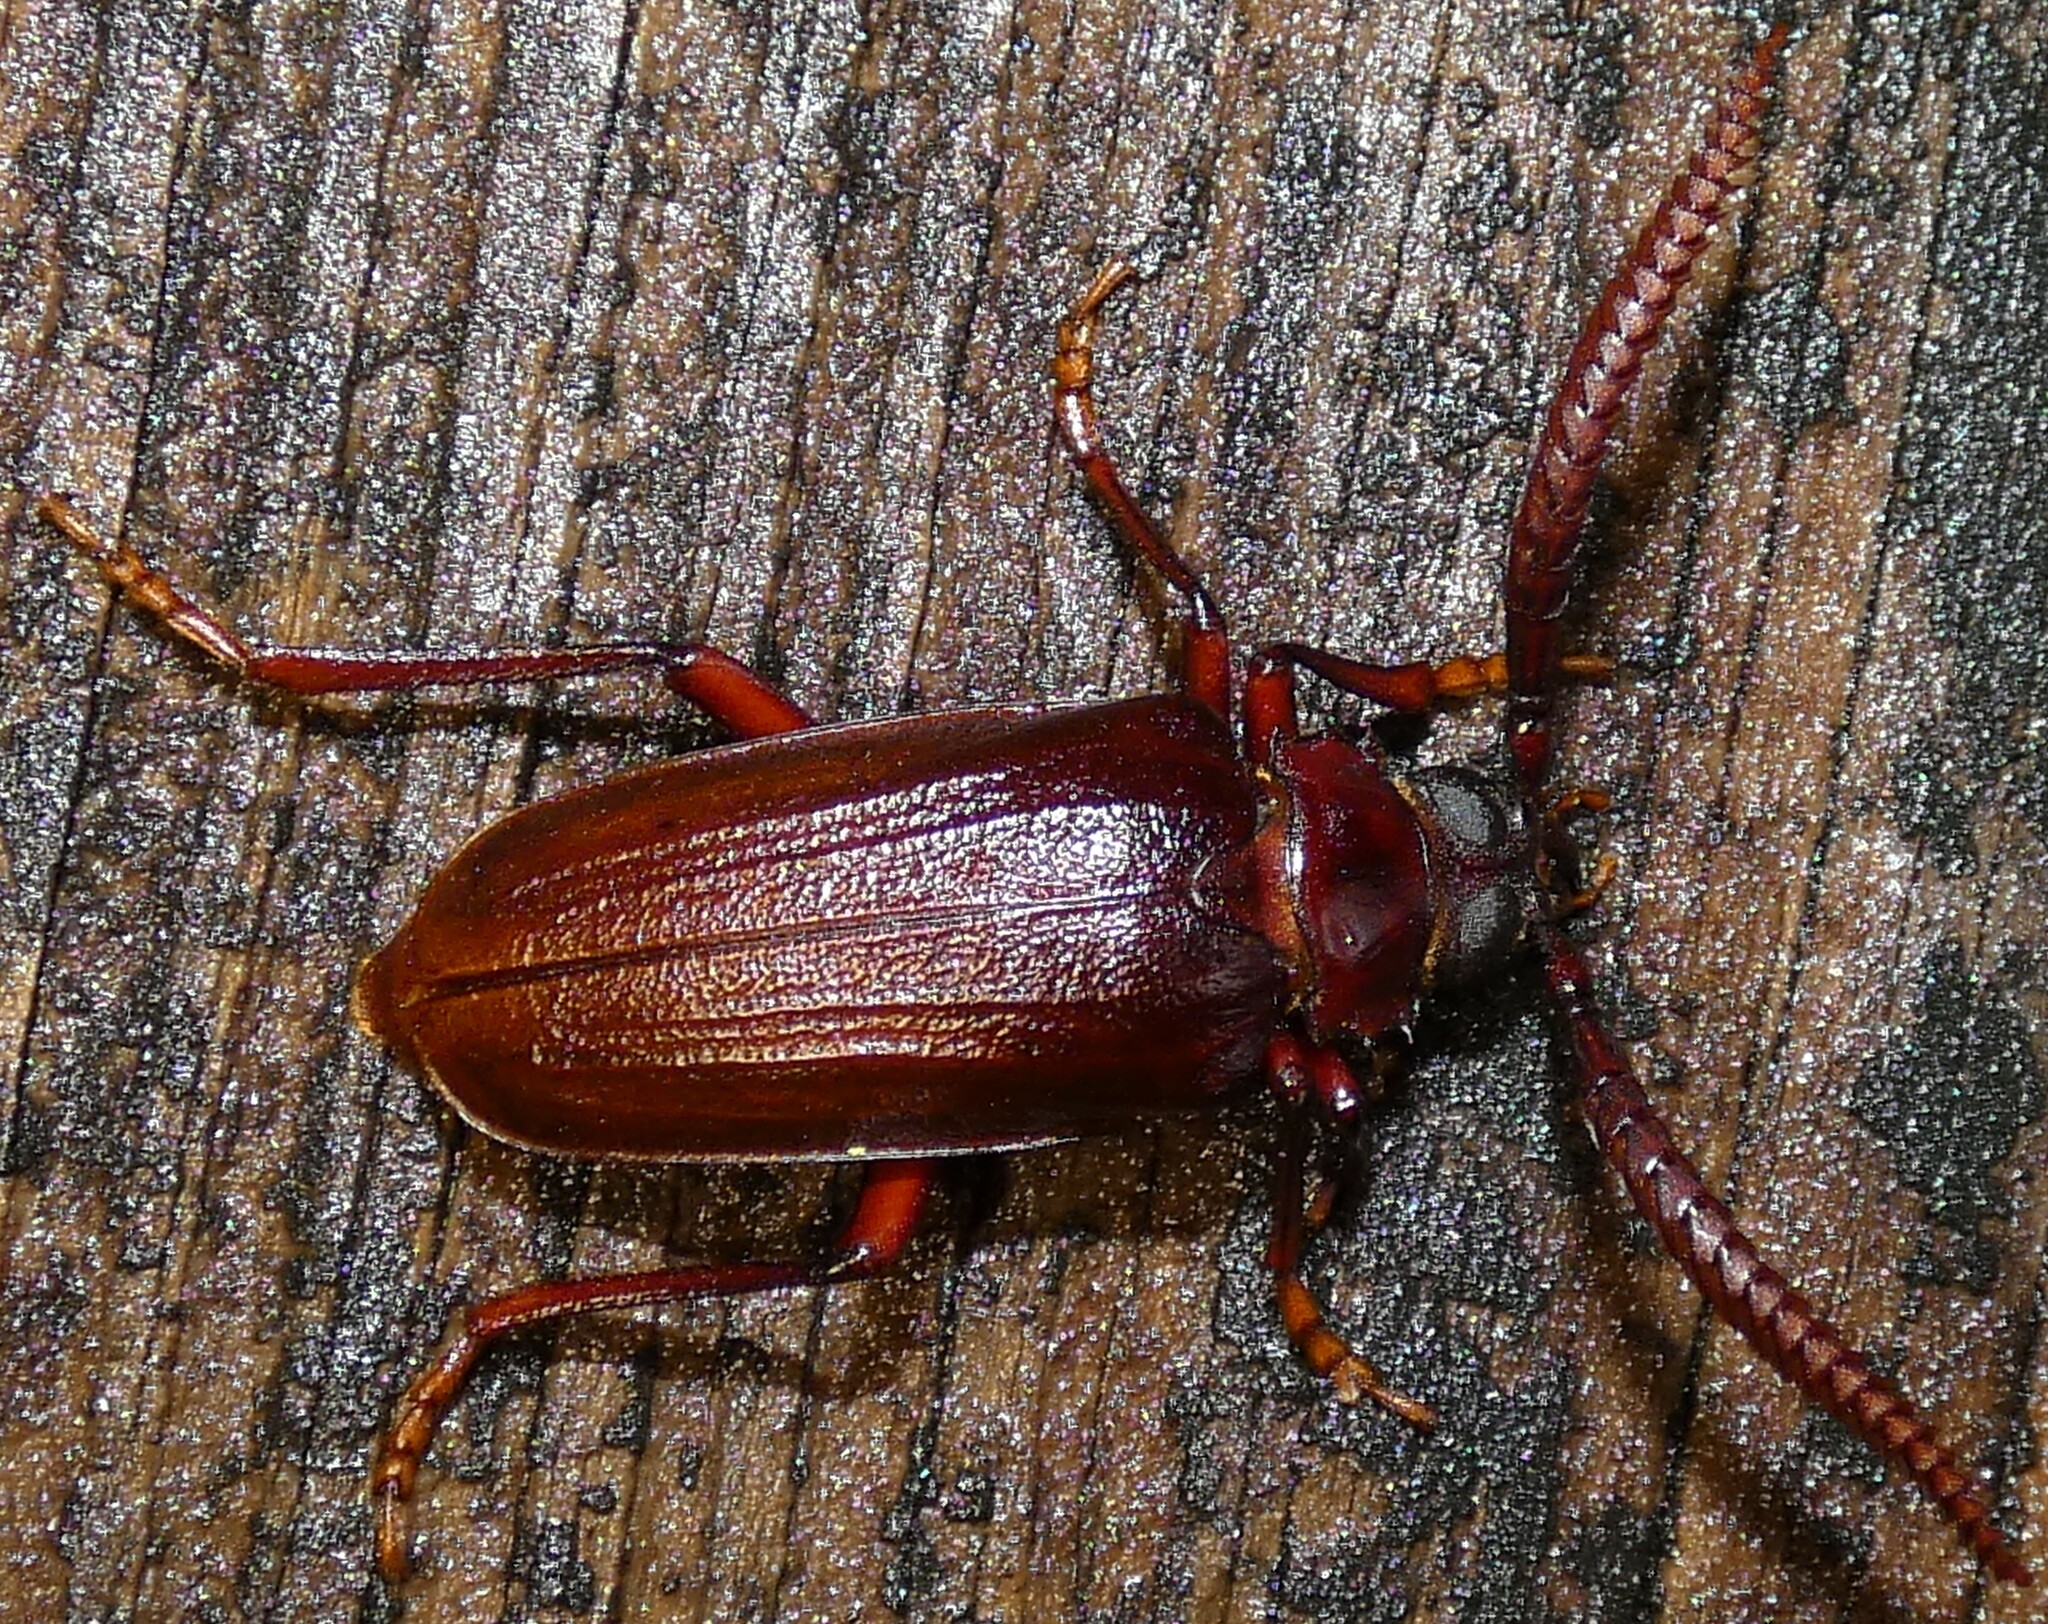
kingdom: Animalia
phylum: Arthropoda
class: Insecta
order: Coleoptera
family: Cerambycidae
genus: Prionus
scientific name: Prionus imbricornis
